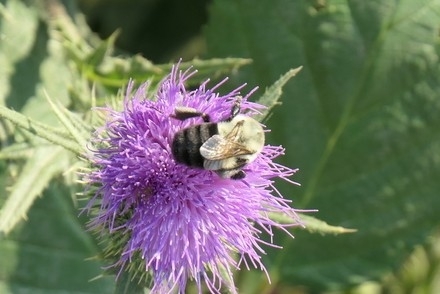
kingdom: Animalia
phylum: Arthropoda
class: Insecta
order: Hymenoptera
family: Apidae
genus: Bombus
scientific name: Bombus impatiens
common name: Common eastern bumble bee
